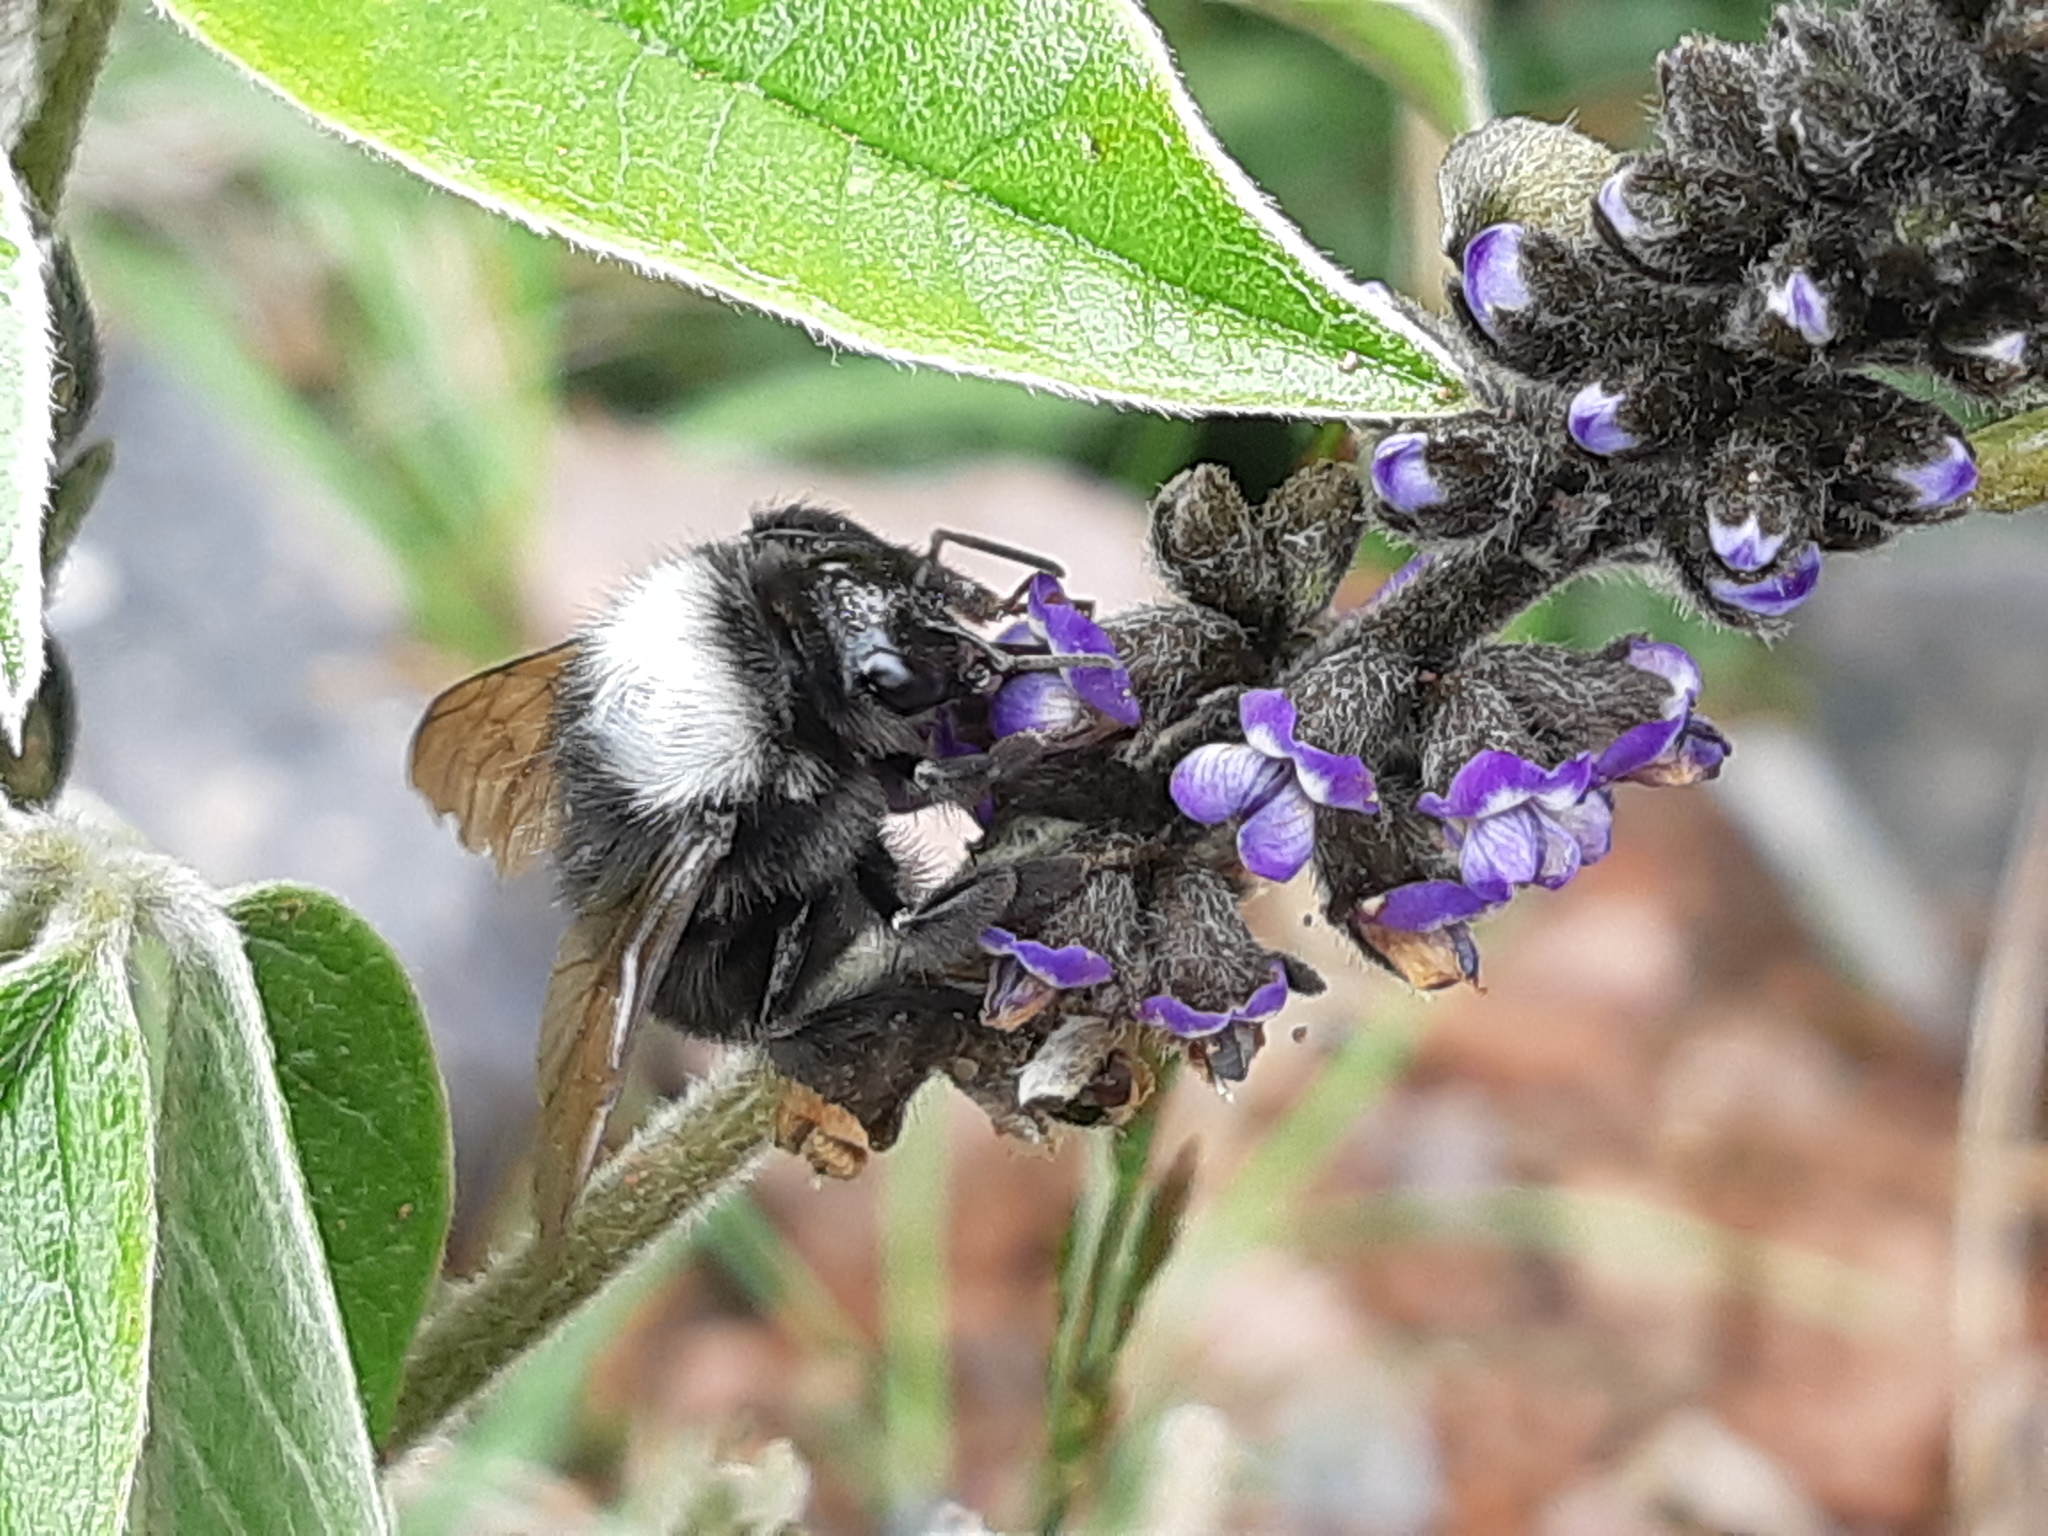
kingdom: Animalia
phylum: Arthropoda
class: Insecta
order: Hymenoptera
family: Apidae
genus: Bombus
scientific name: Bombus funebris
